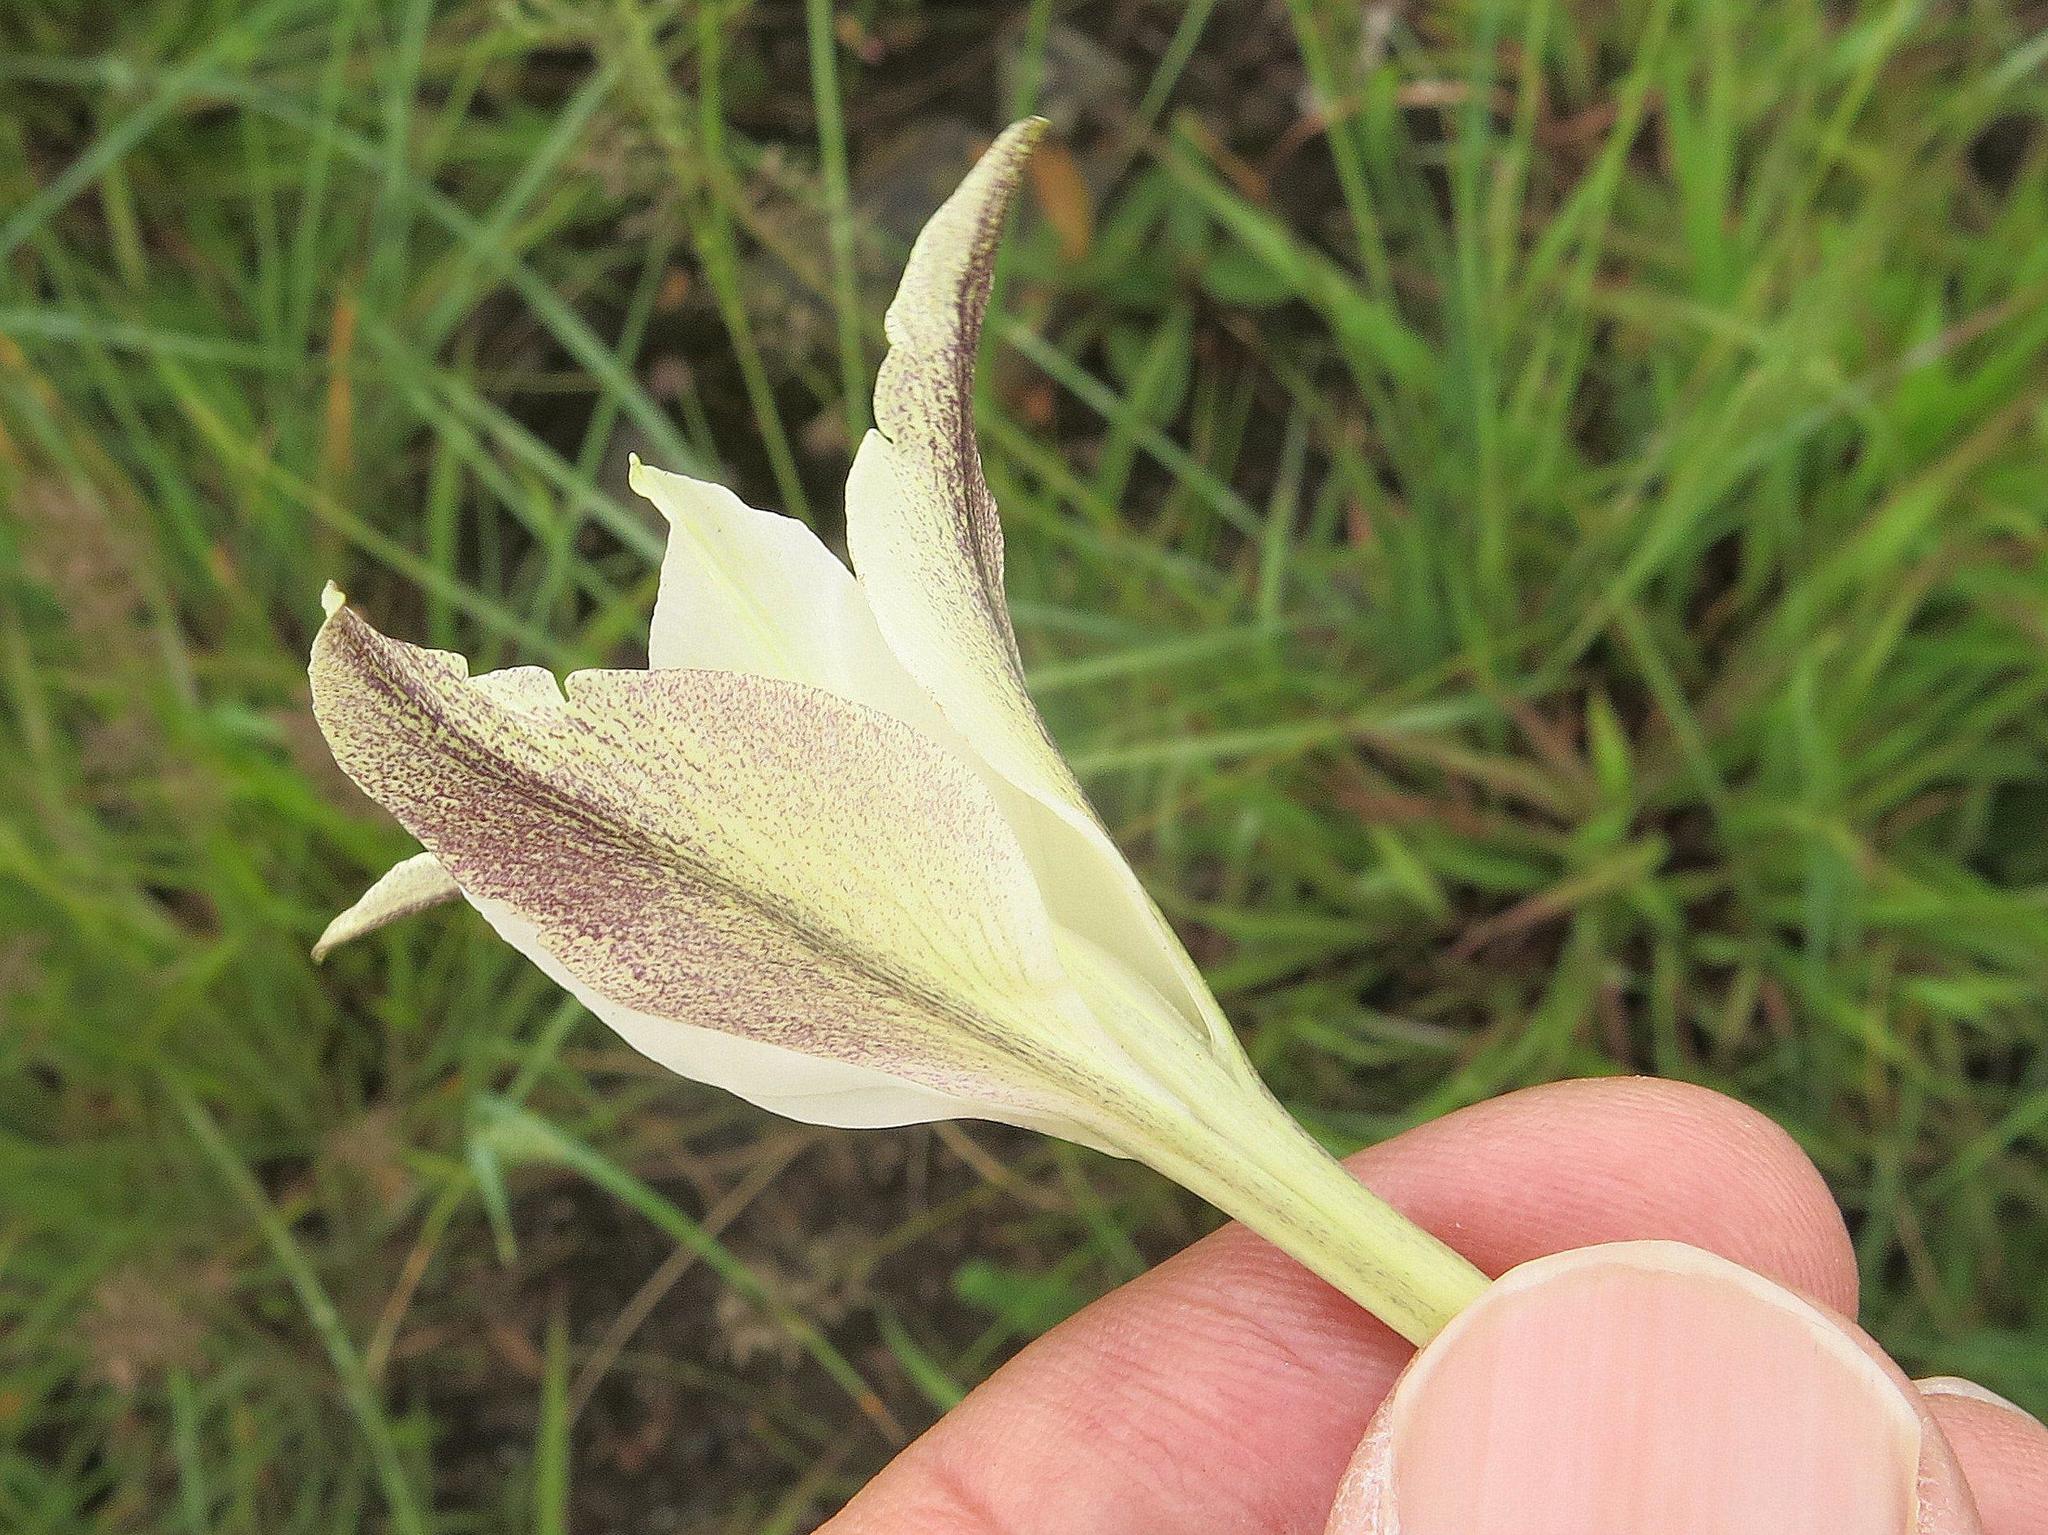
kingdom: Plantae
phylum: Tracheophyta
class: Liliopsida
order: Asparagales
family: Iridaceae
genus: Gladiolus
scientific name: Gladiolus longicollis
